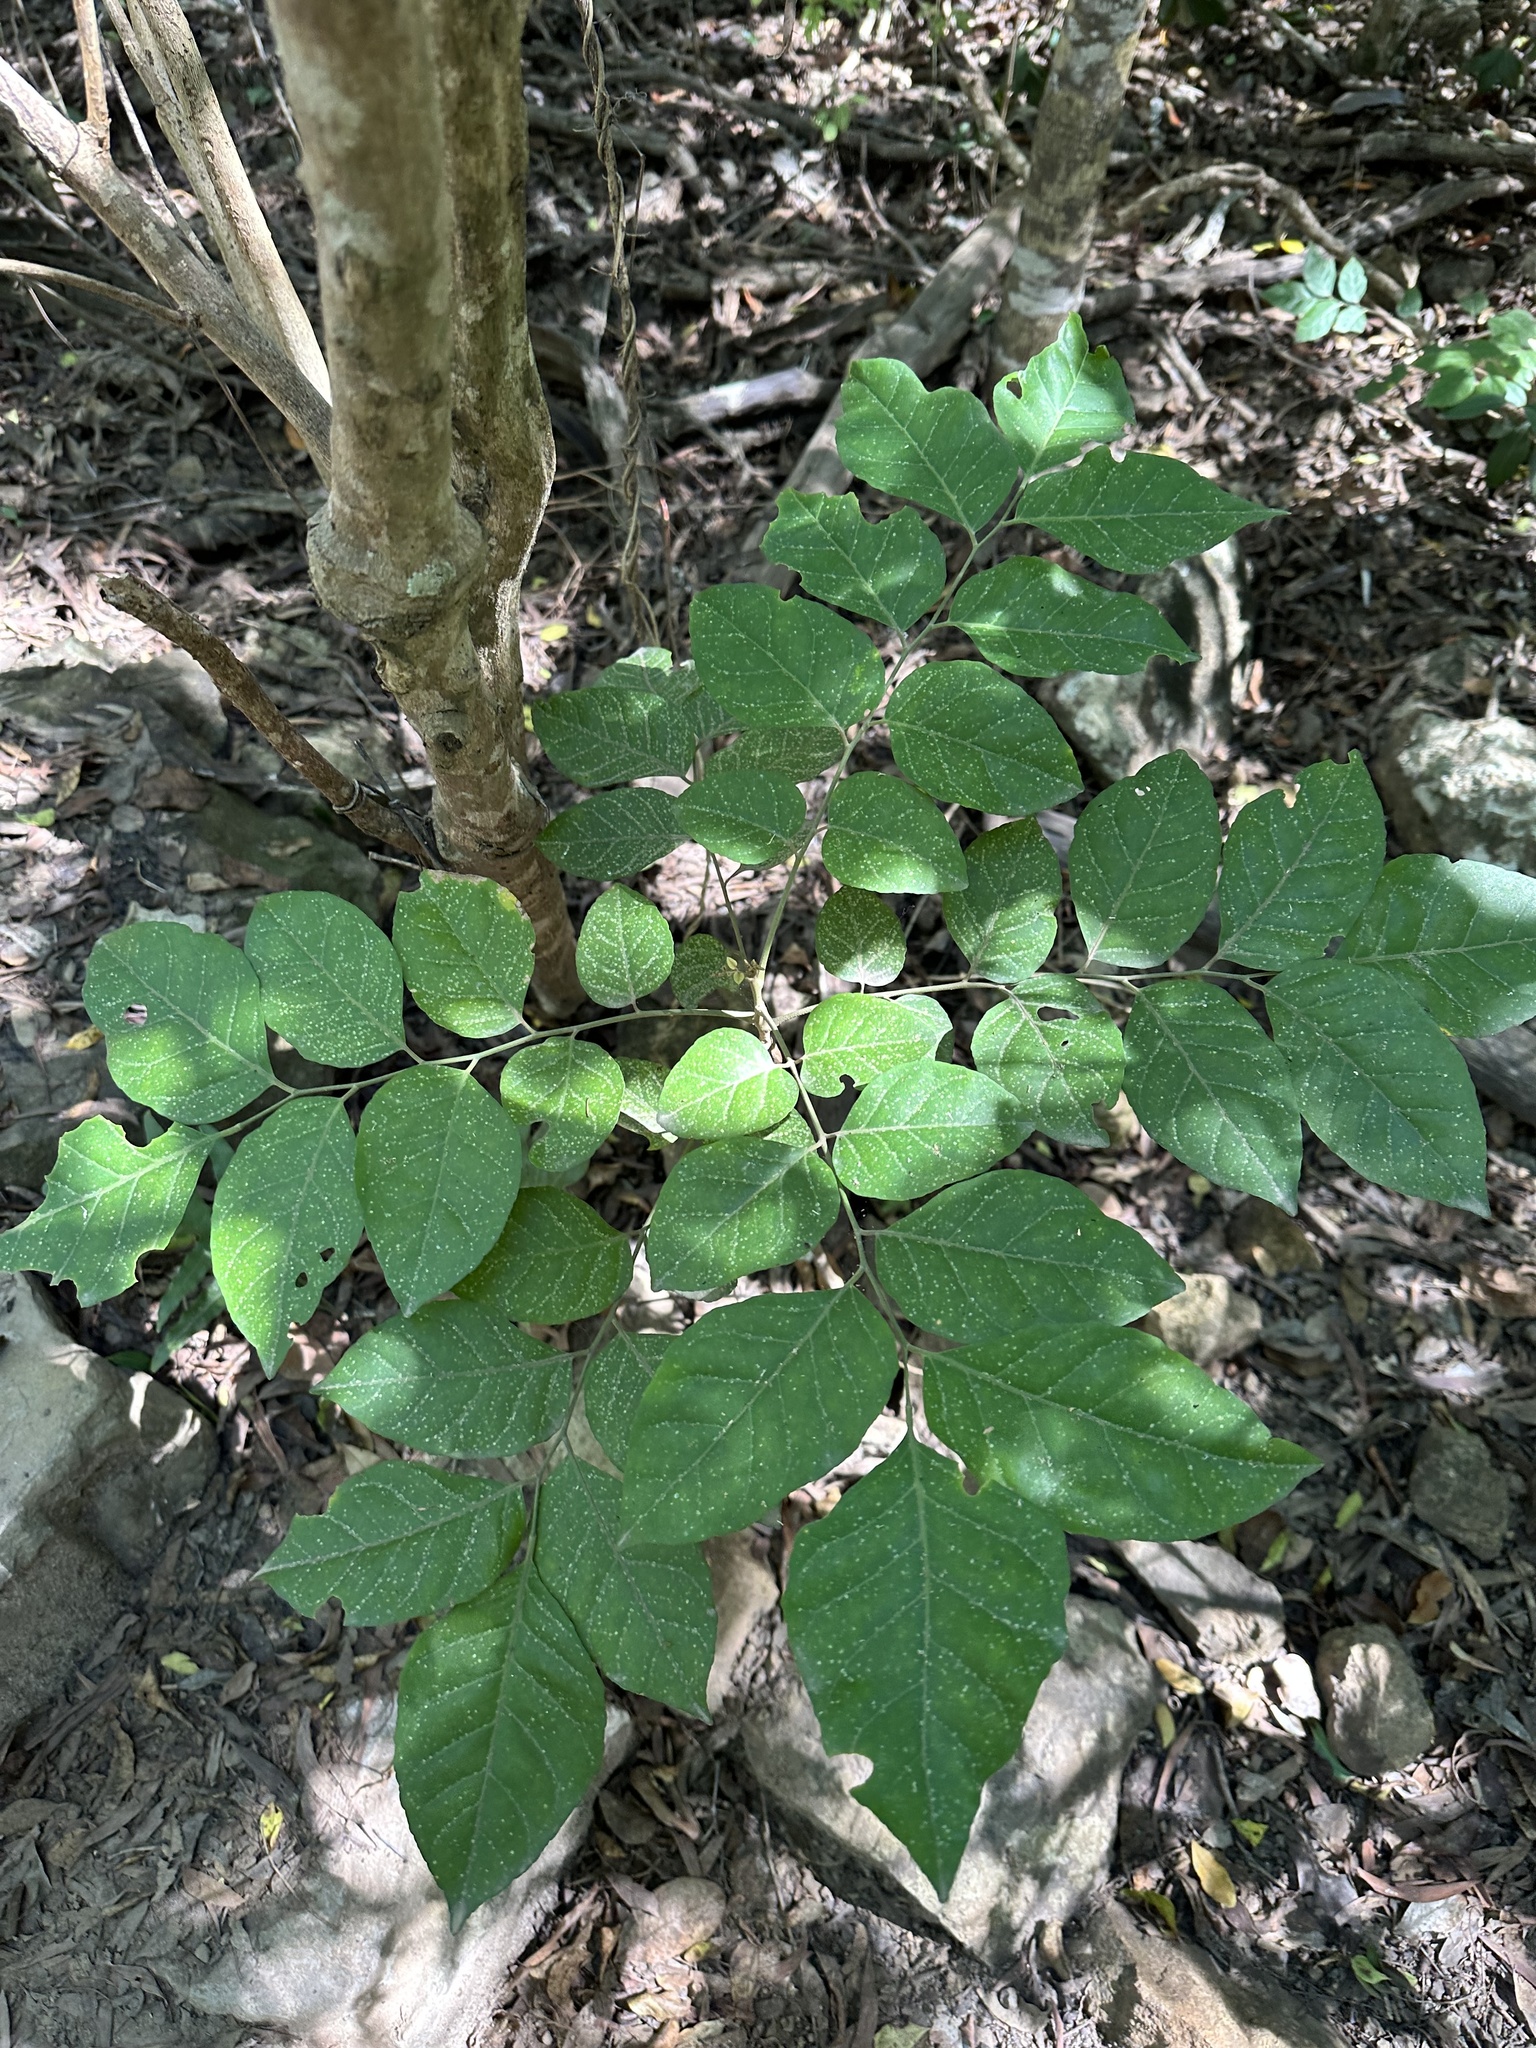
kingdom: Plantae
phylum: Tracheophyta
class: Magnoliopsida
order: Sapindales
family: Rutaceae
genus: Micromelum
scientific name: Micromelum minutum
